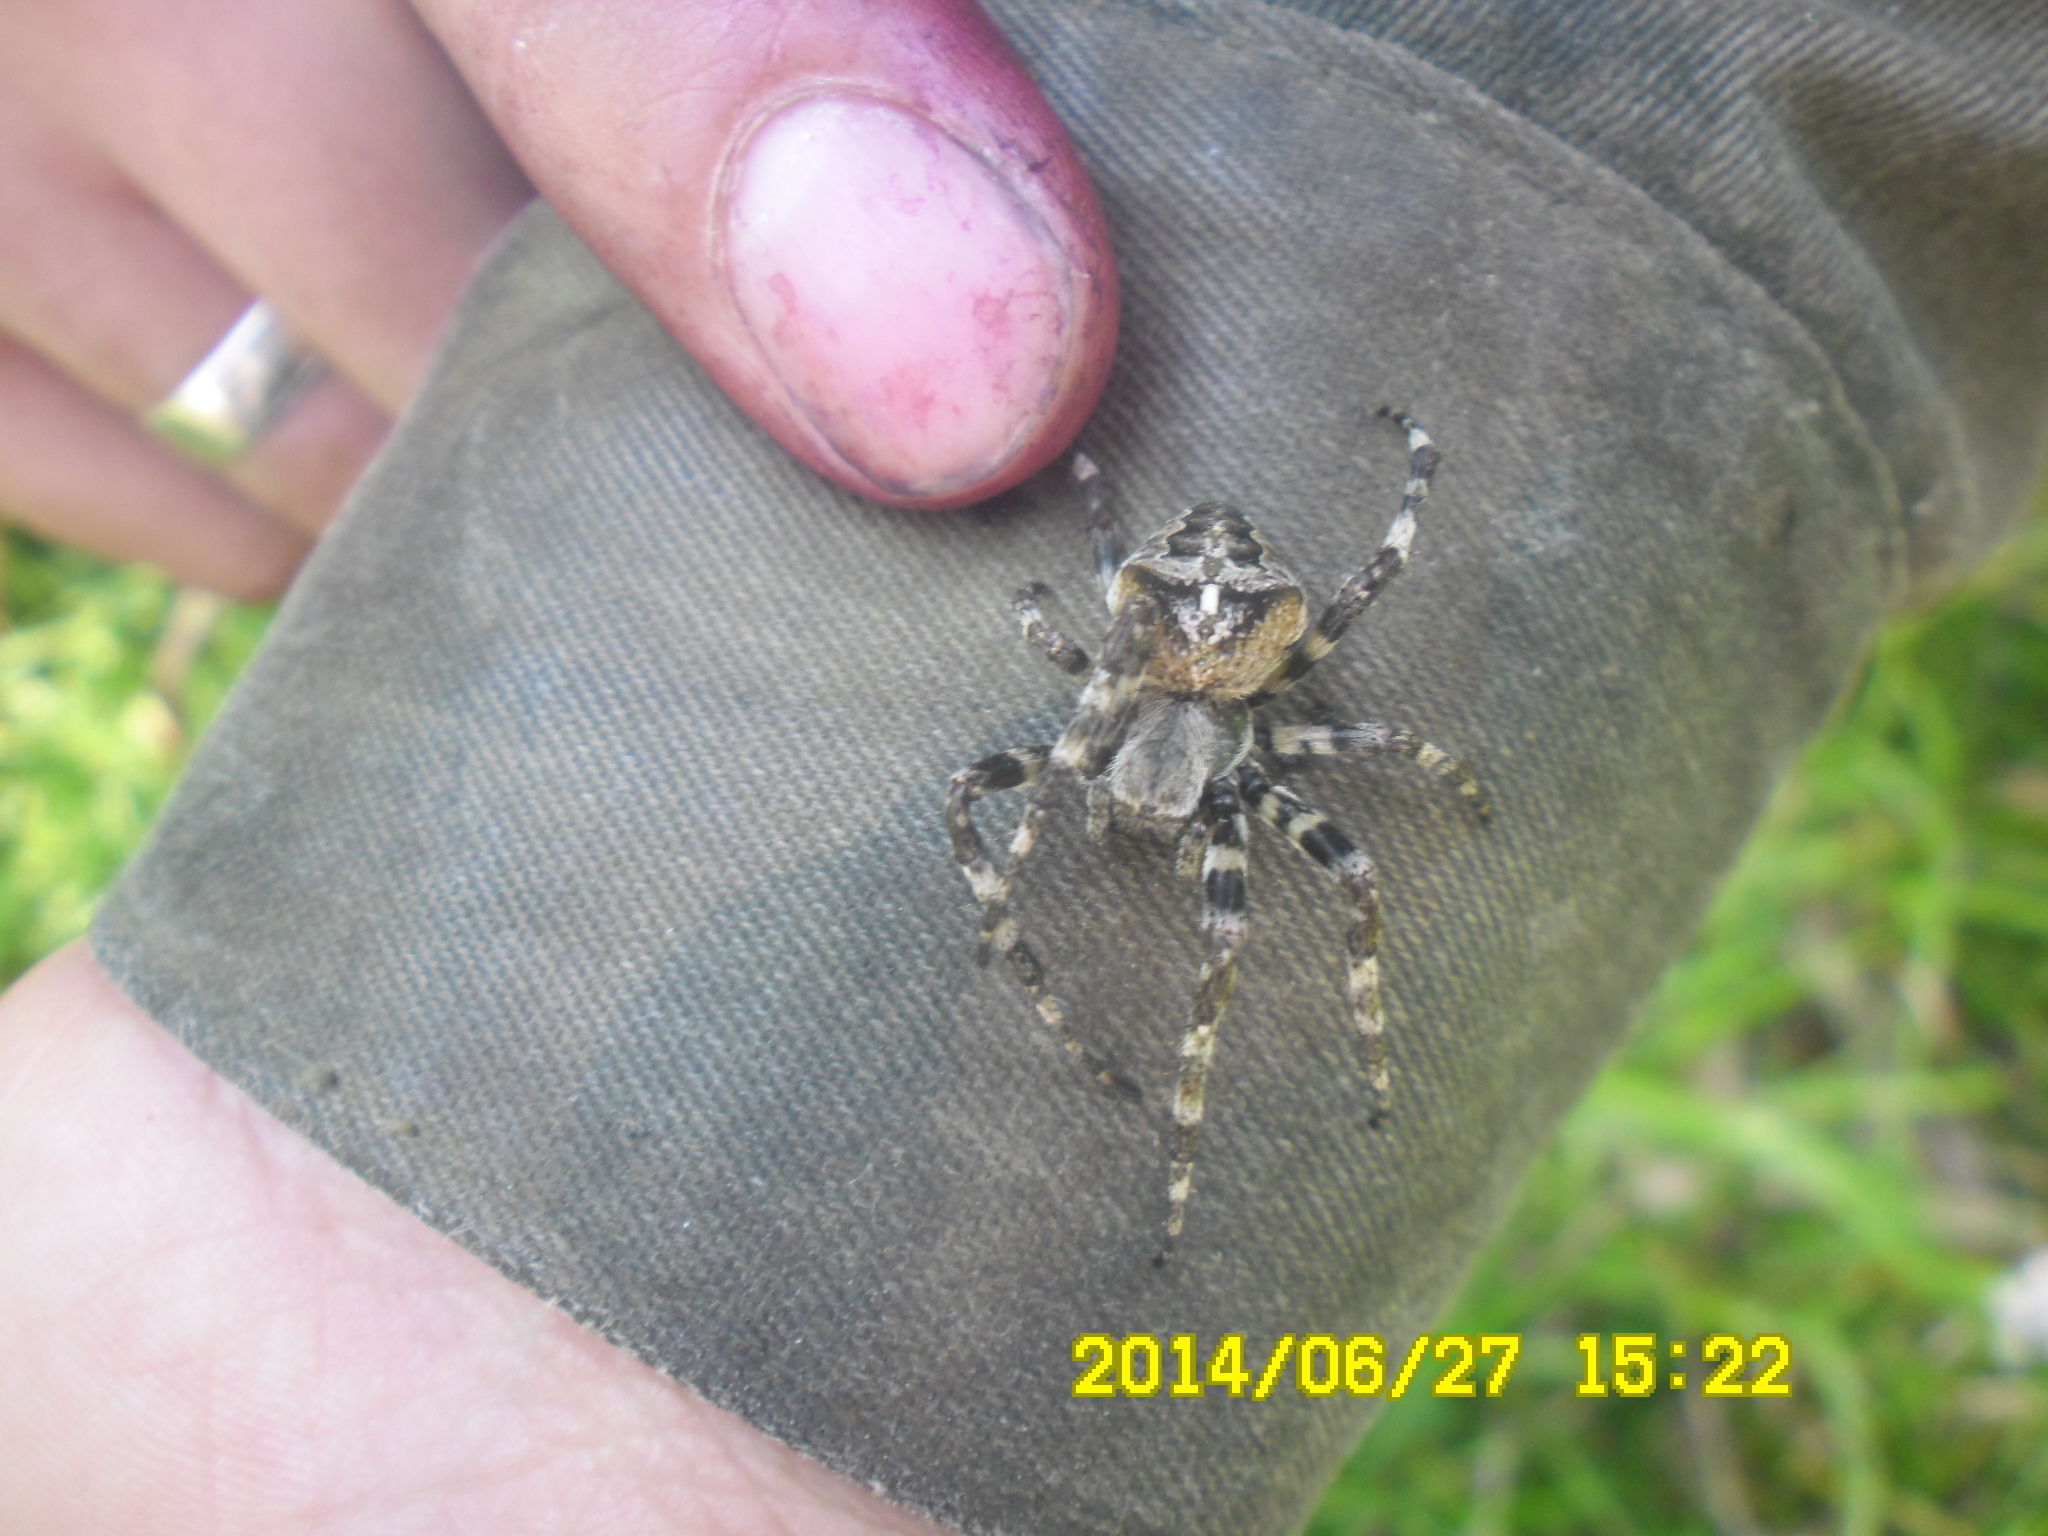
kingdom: Animalia
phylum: Arthropoda
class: Arachnida
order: Araneae
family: Araneidae
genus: Araneus
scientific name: Araneus angulatus
